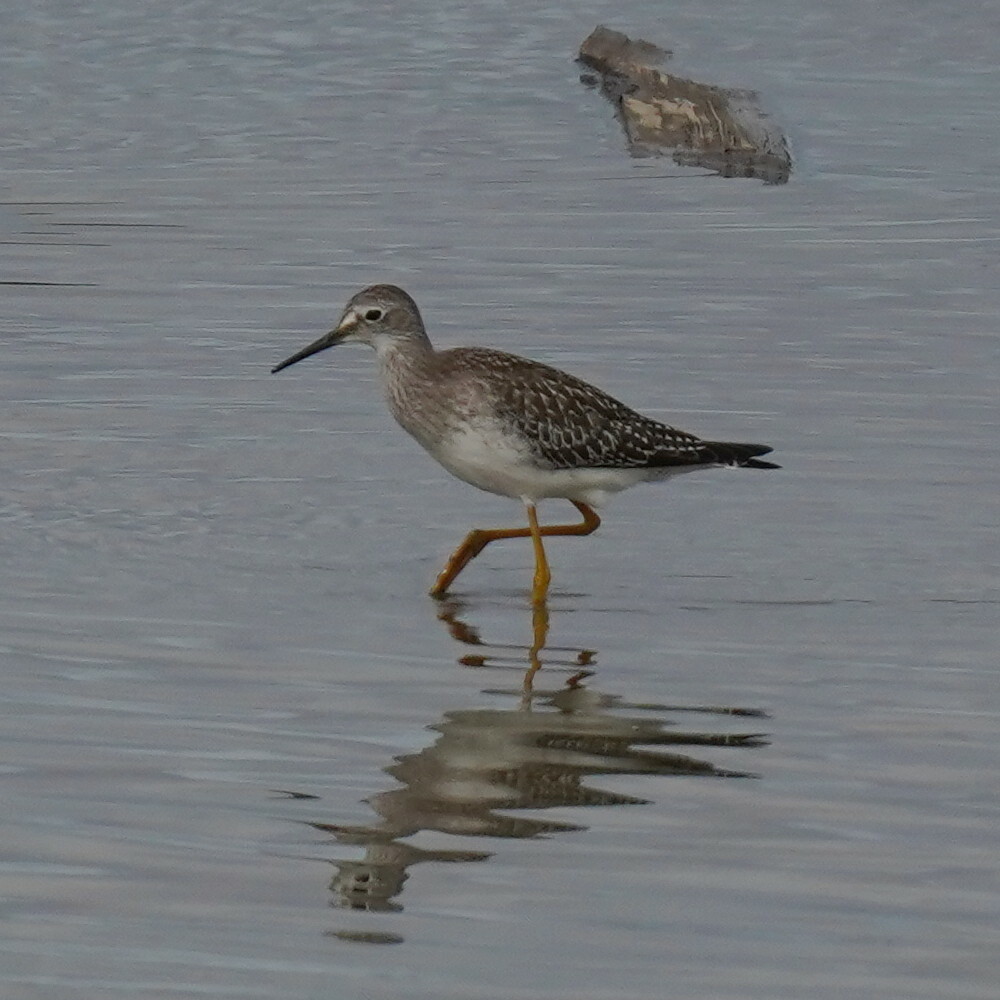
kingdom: Animalia
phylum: Chordata
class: Aves
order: Charadriiformes
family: Scolopacidae
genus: Tringa
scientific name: Tringa flavipes
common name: Lesser yellowlegs
